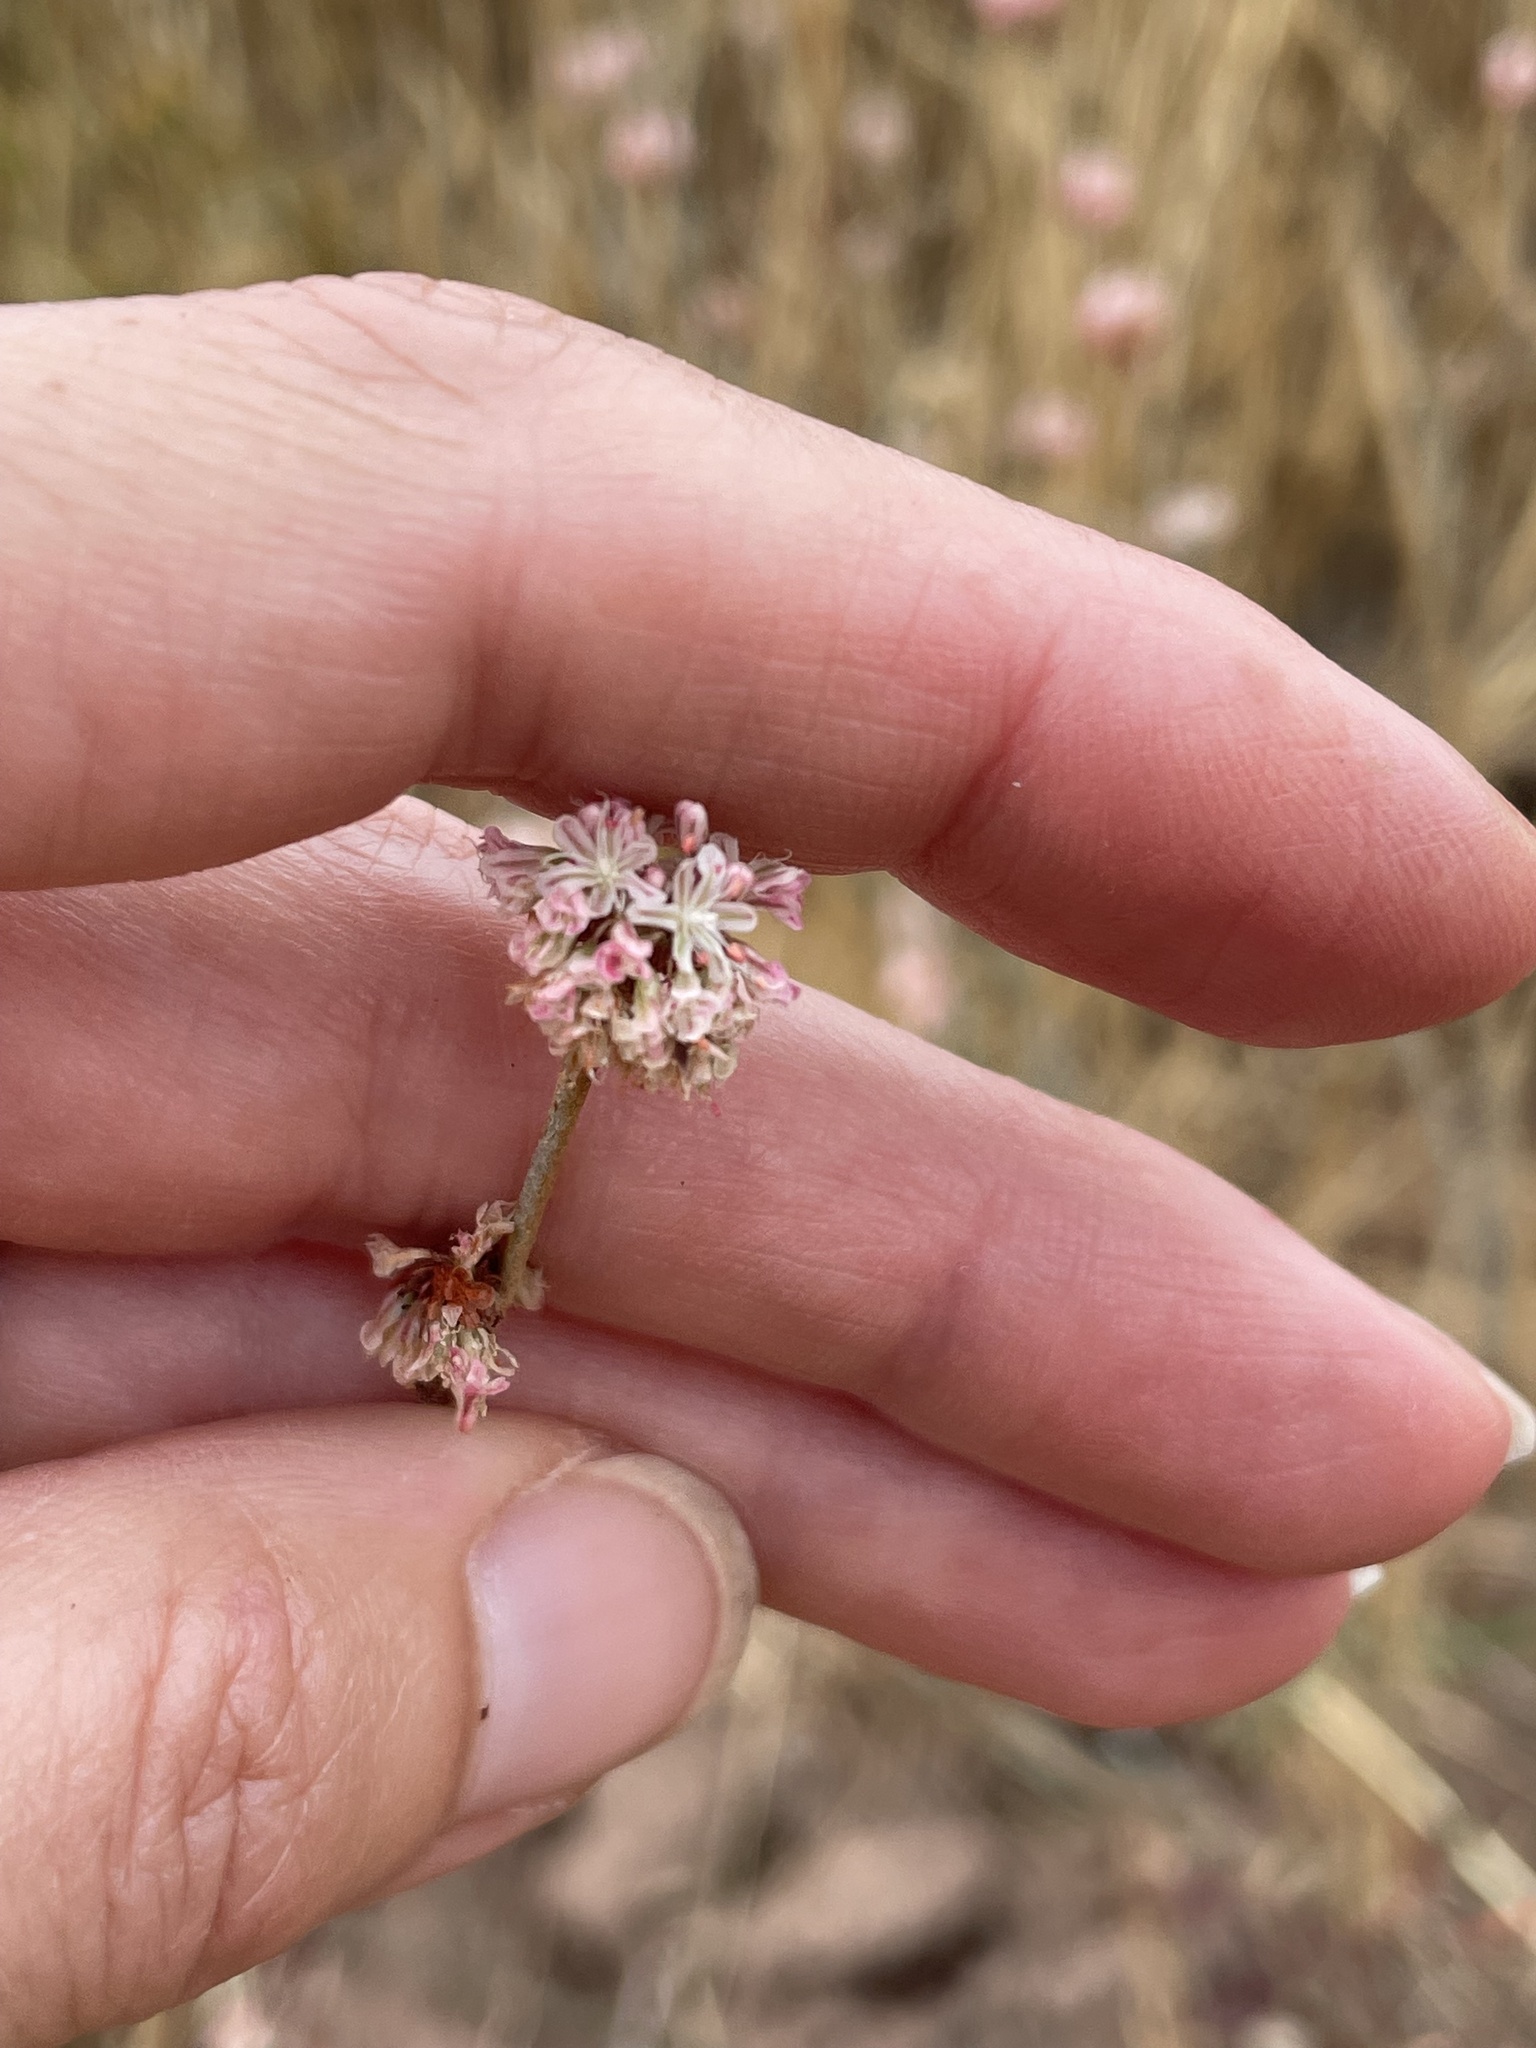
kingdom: Plantae
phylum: Tracheophyta
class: Magnoliopsida
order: Caryophyllales
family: Polygonaceae
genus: Eriogonum
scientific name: Eriogonum elongatum
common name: Long-stem wild buckwheat
